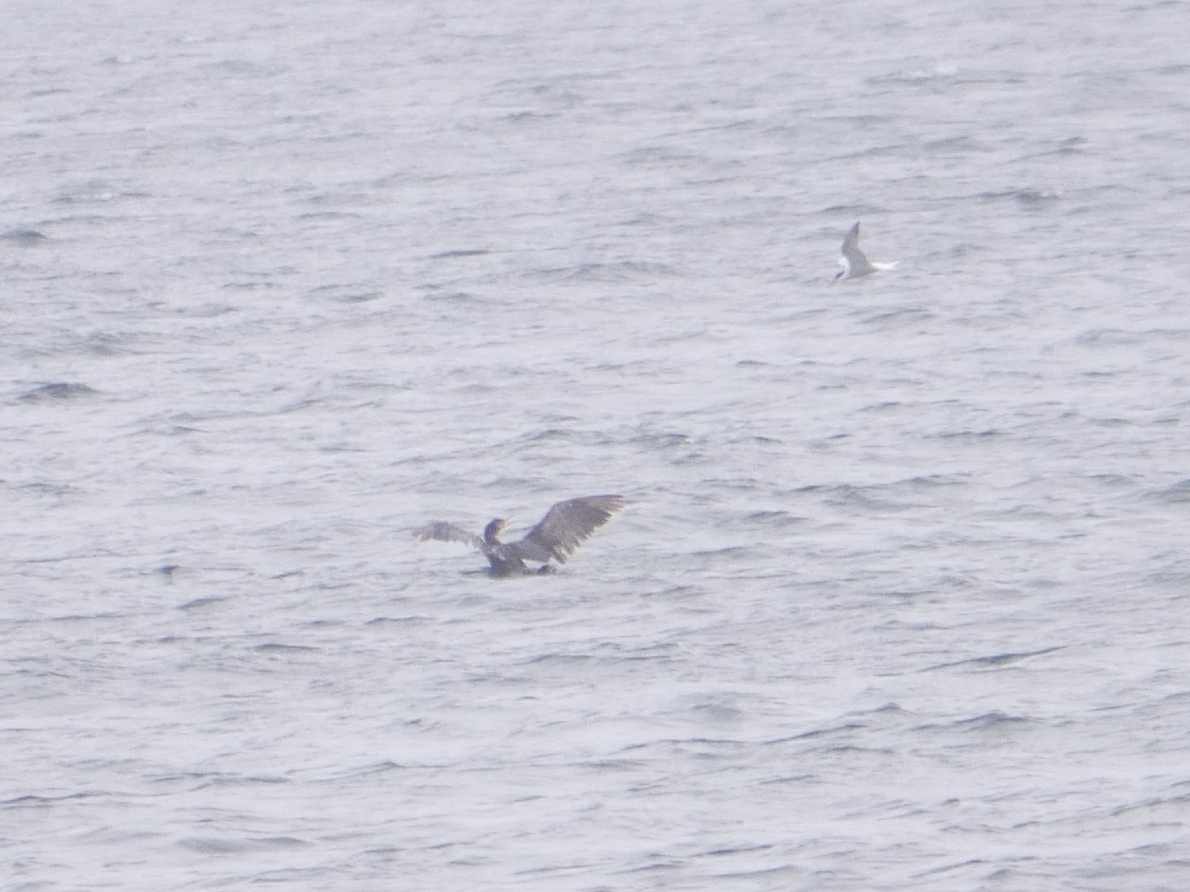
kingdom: Animalia
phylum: Chordata
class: Aves
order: Charadriiformes
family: Laridae
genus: Sterna
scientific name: Sterna hirundo
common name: Common tern
